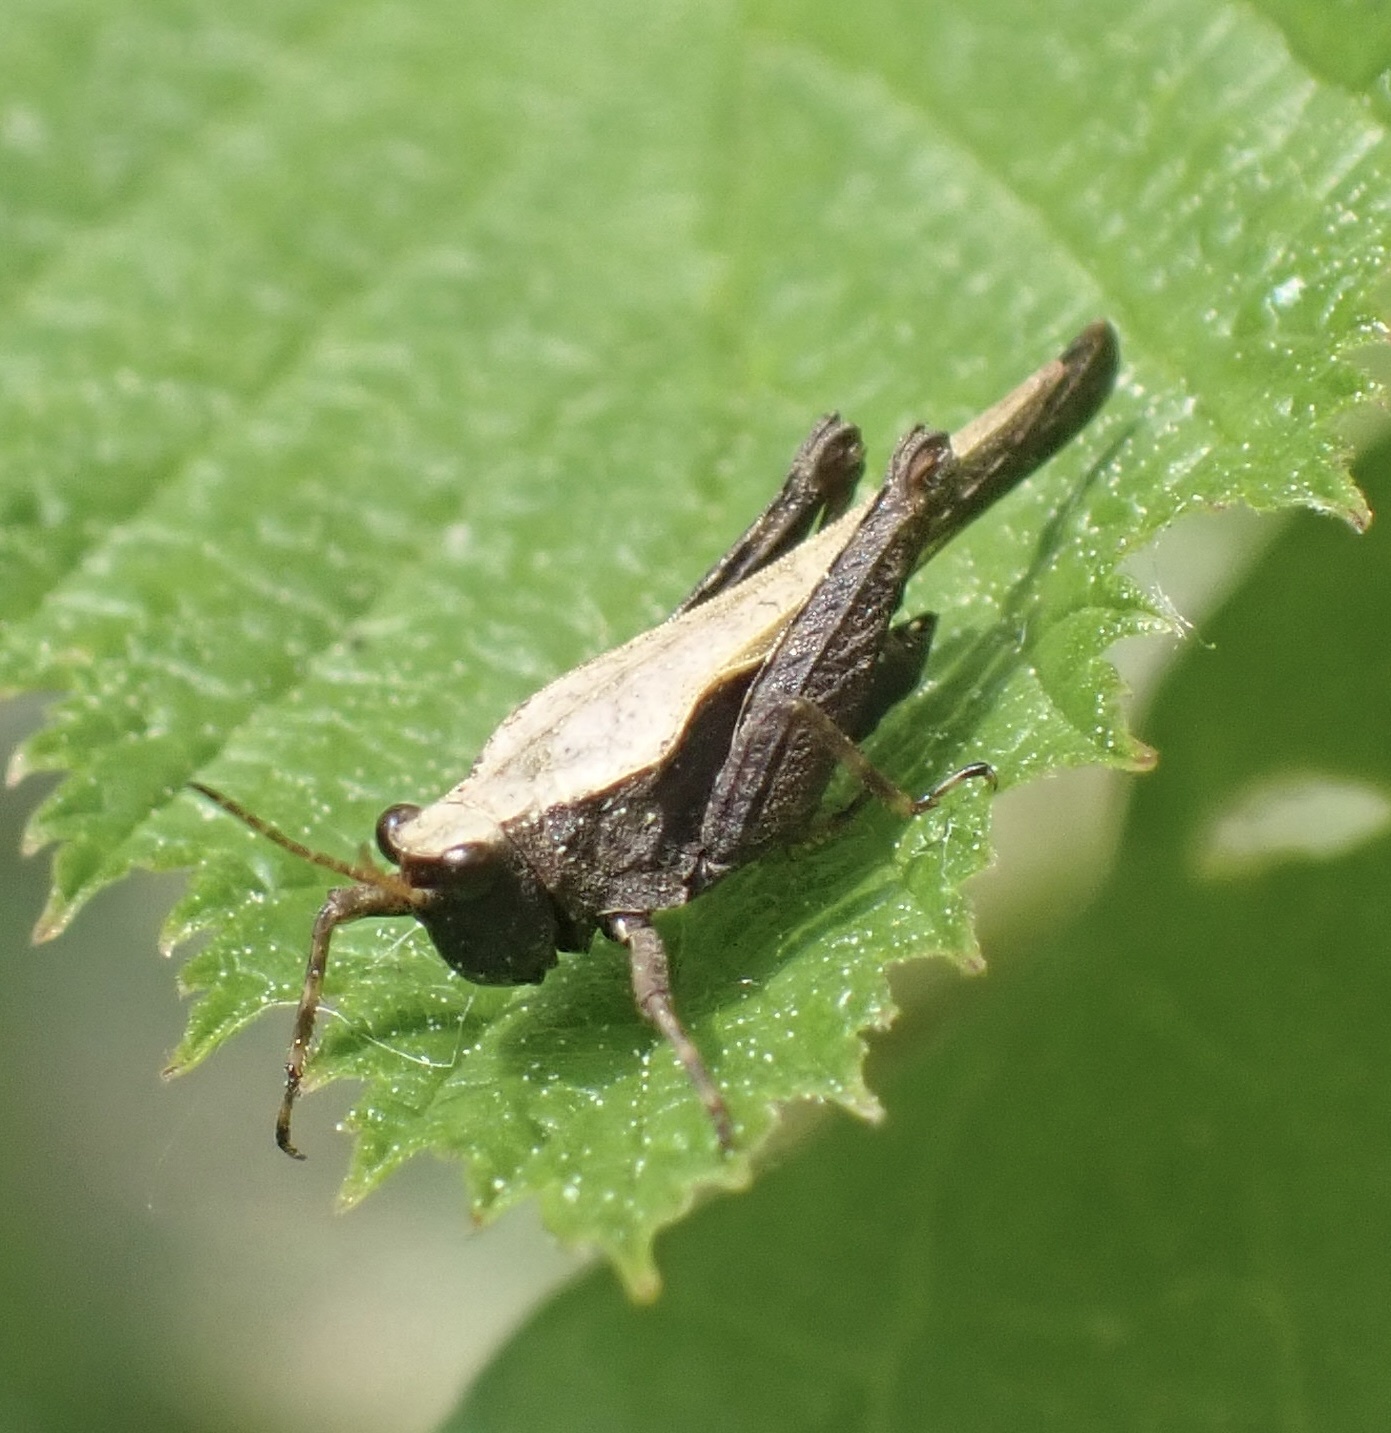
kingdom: Animalia
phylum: Arthropoda
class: Insecta
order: Orthoptera
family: Tetrigidae
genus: Tetrix
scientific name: Tetrix subulata
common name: Slender ground-hopper
